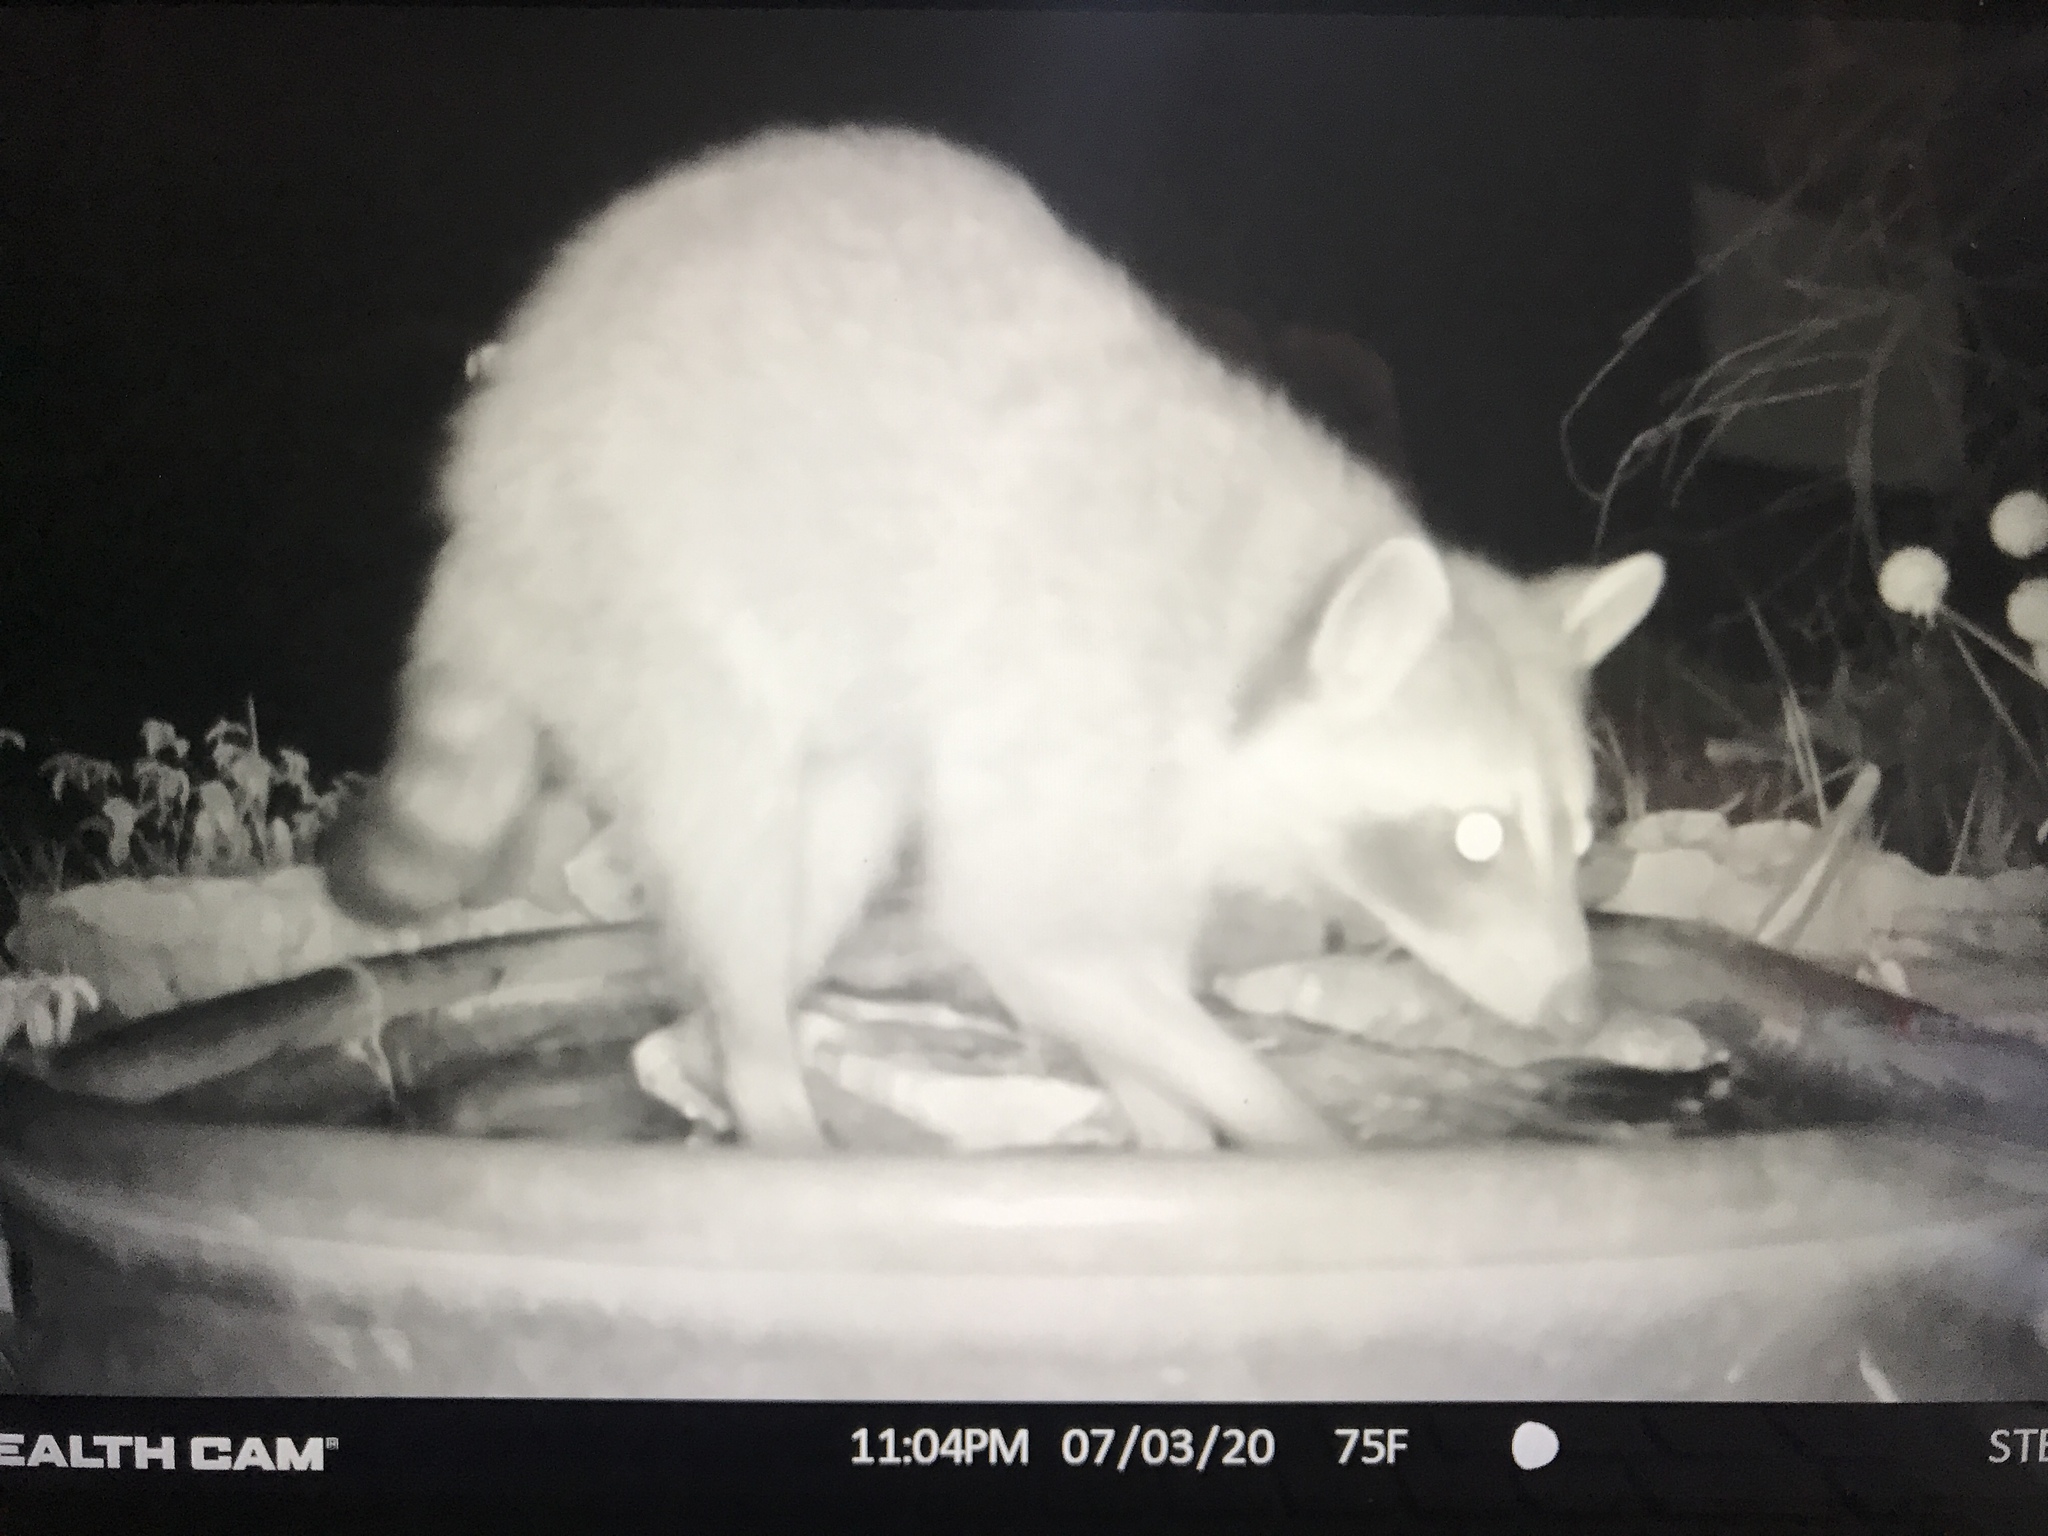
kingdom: Animalia
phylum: Chordata
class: Mammalia
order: Carnivora
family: Procyonidae
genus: Procyon
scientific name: Procyon lotor
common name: Raccoon
